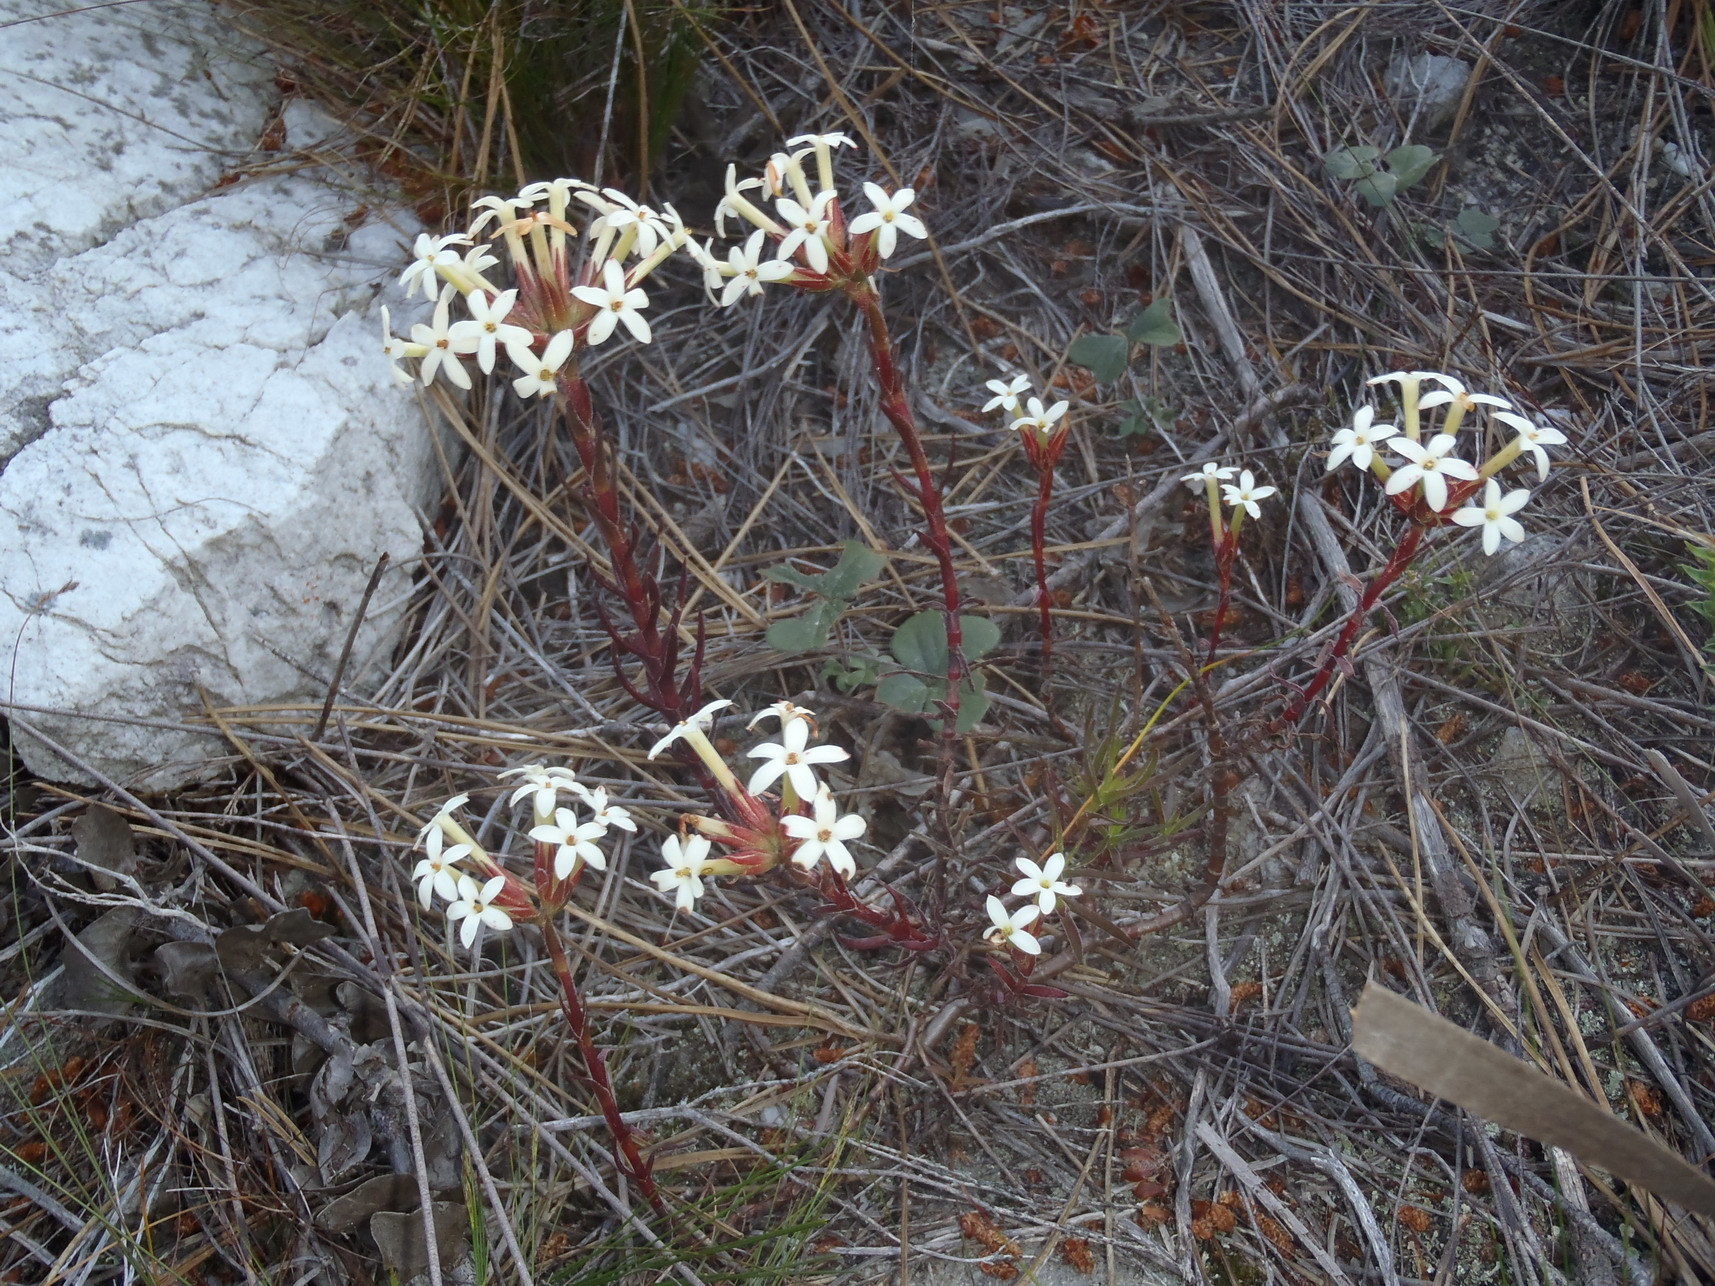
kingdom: Plantae
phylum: Tracheophyta
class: Magnoliopsida
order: Saxifragales
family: Crassulaceae
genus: Crassula
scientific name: Crassula fascicularis
